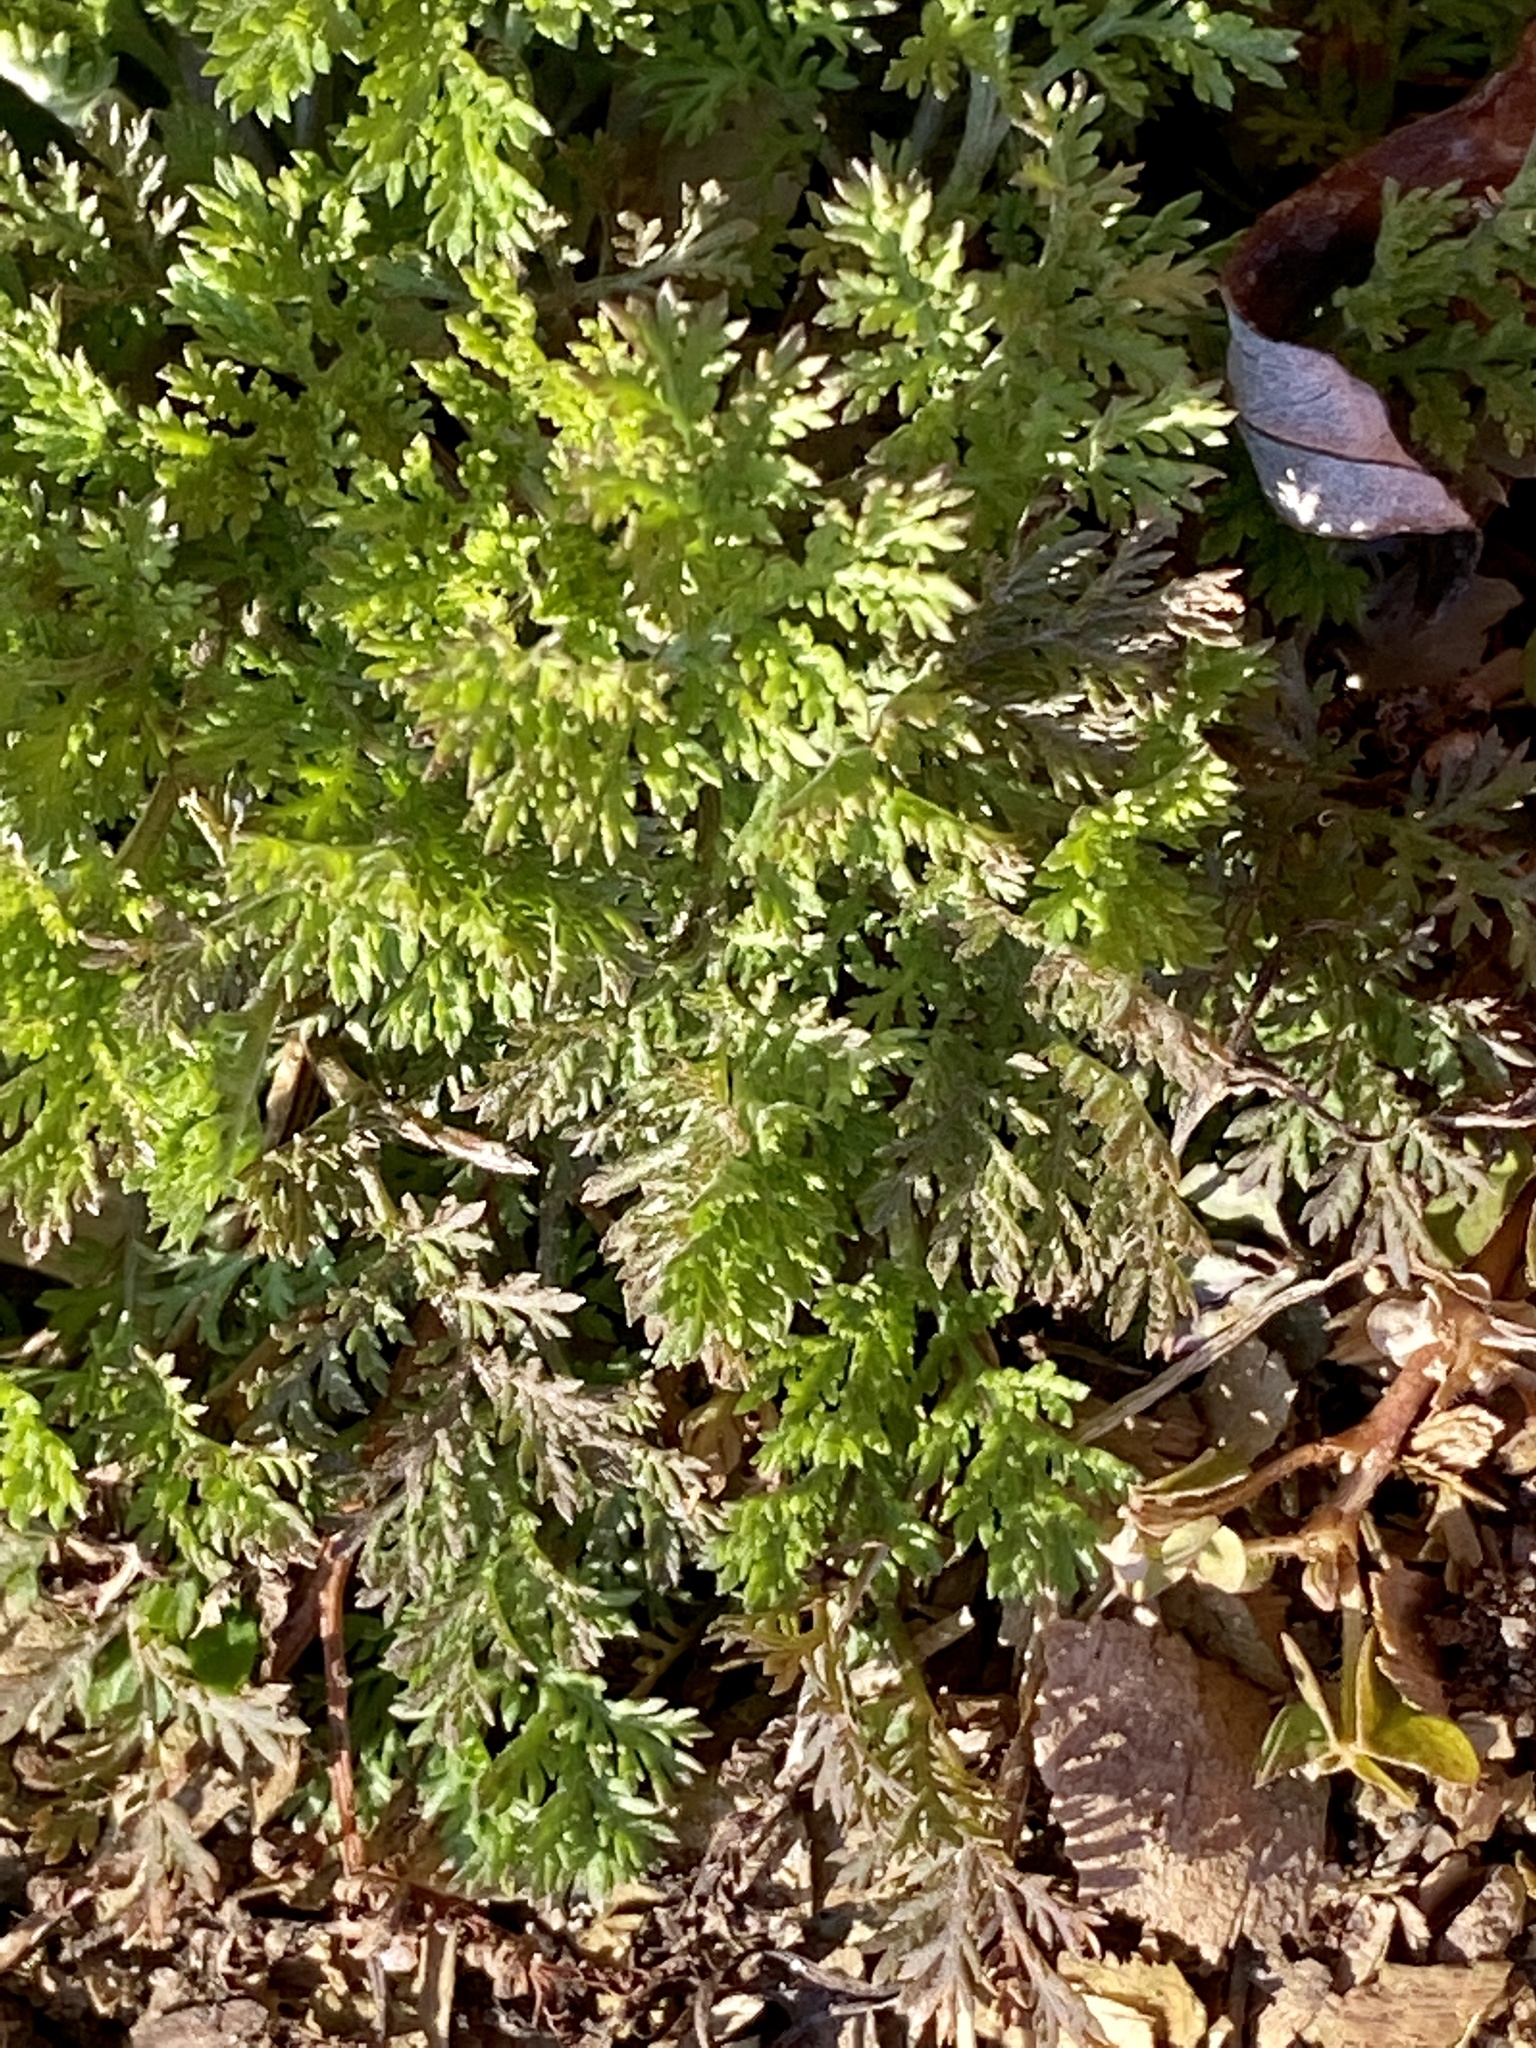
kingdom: Plantae
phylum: Tracheophyta
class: Magnoliopsida
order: Asterales
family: Asteraceae
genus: Artemisia
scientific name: Artemisia annua
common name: Sweet sagewort
